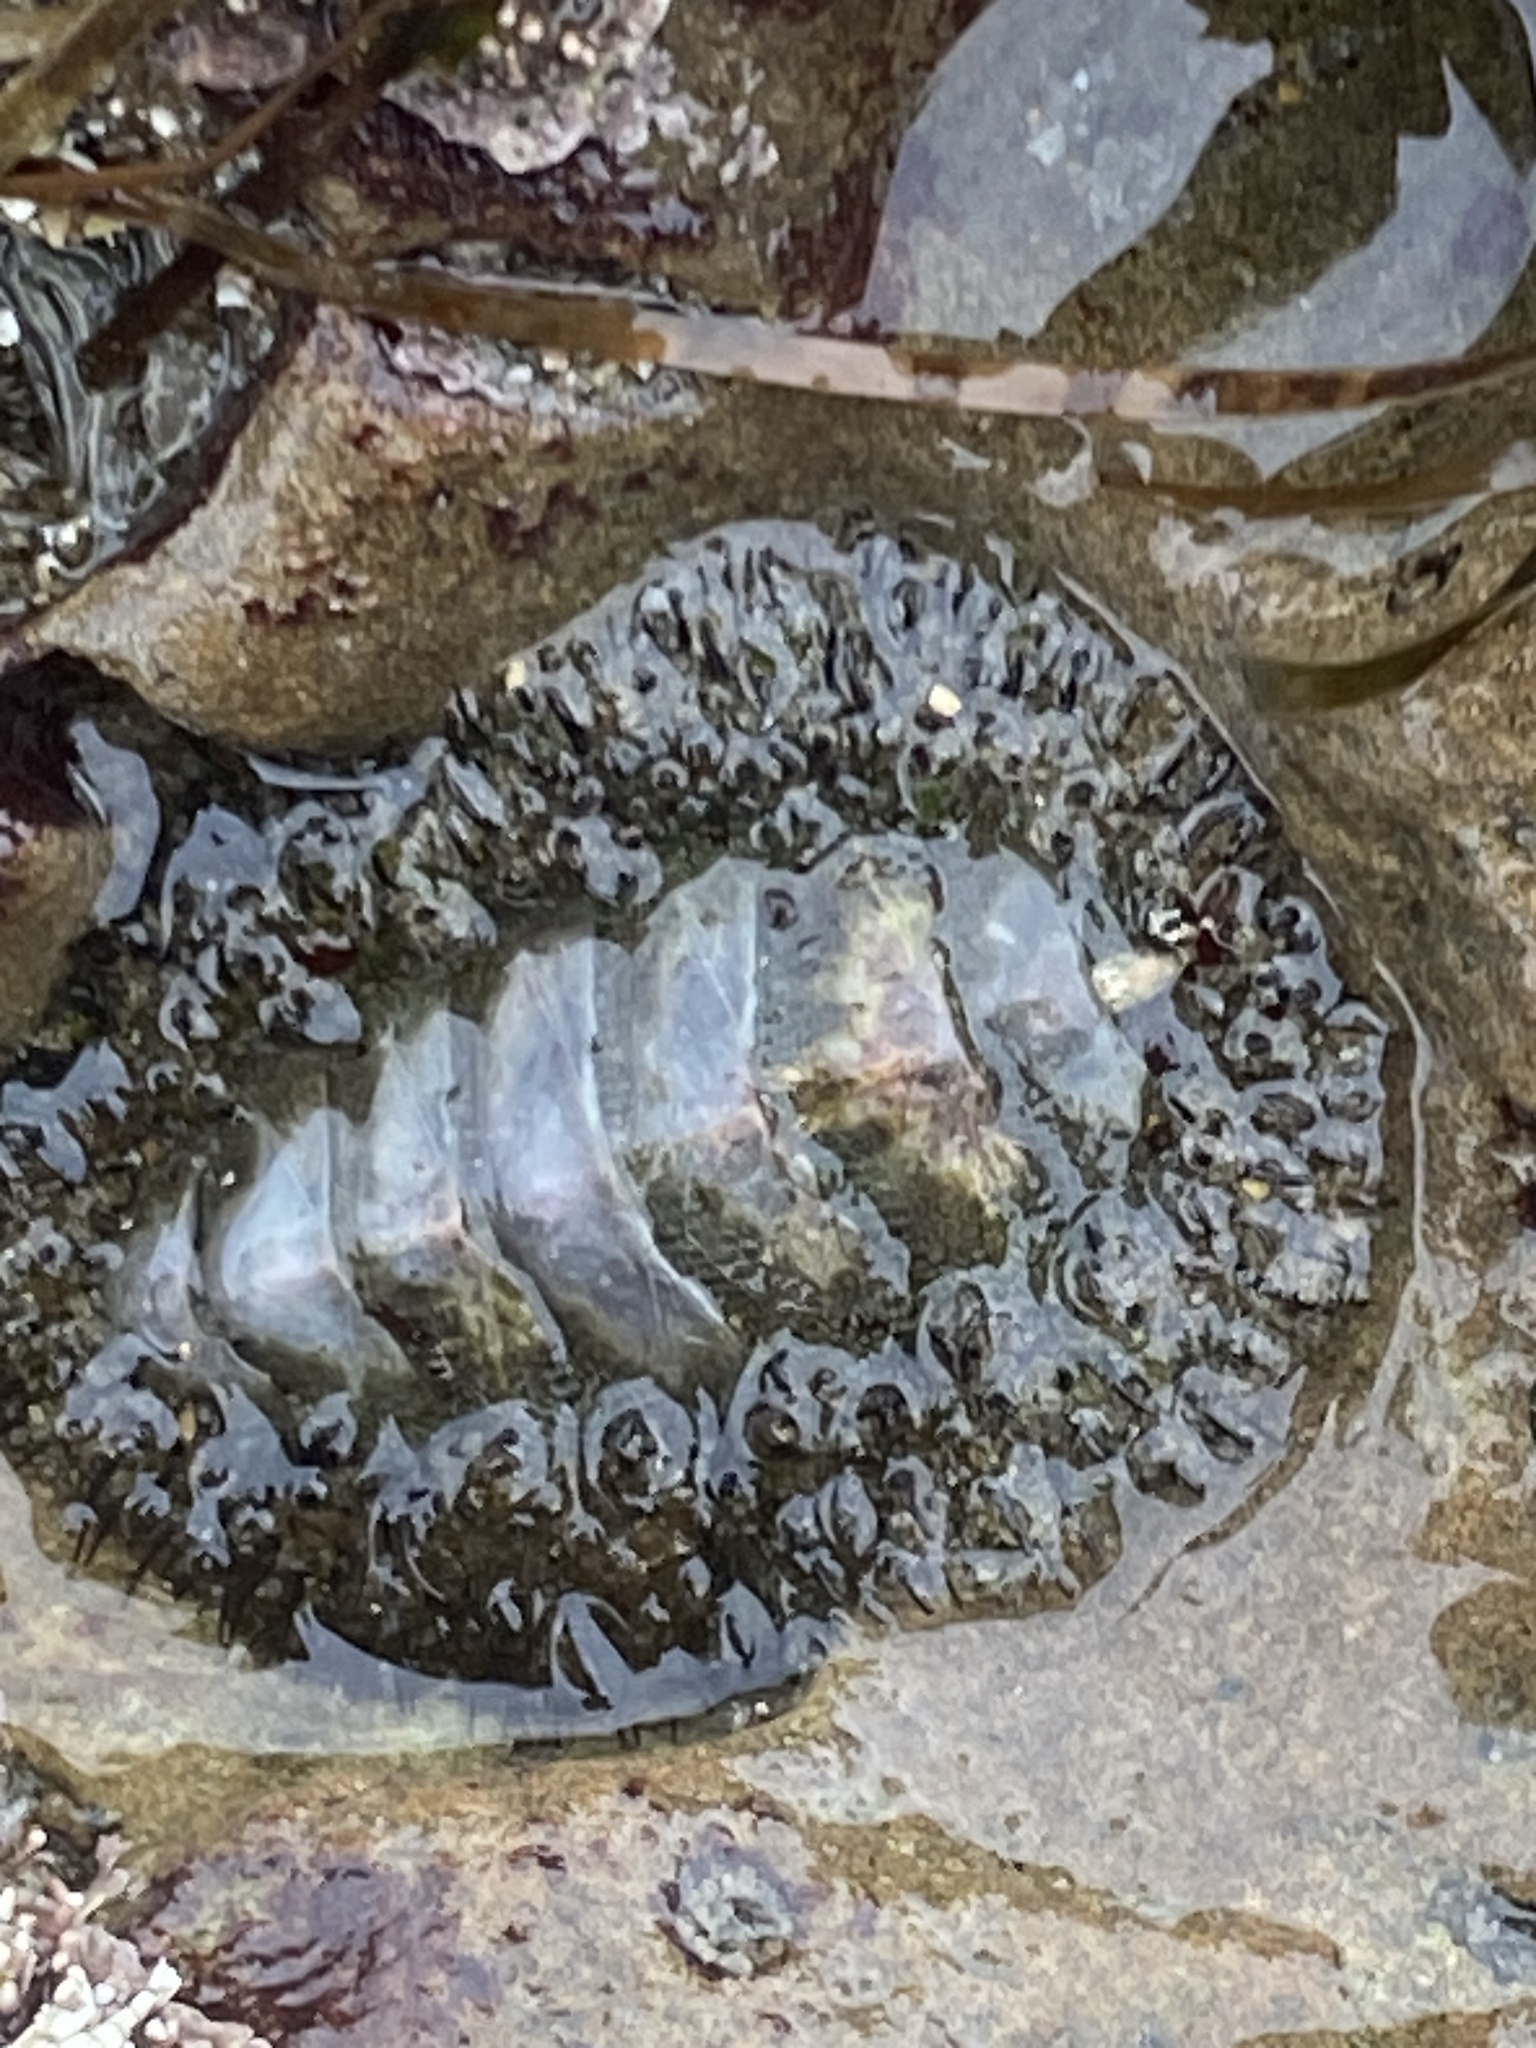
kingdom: Animalia
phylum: Mollusca
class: Polyplacophora
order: Chitonida
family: Mopaliidae
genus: Mopalia
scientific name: Mopalia muscosa
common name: Mossy chiton
